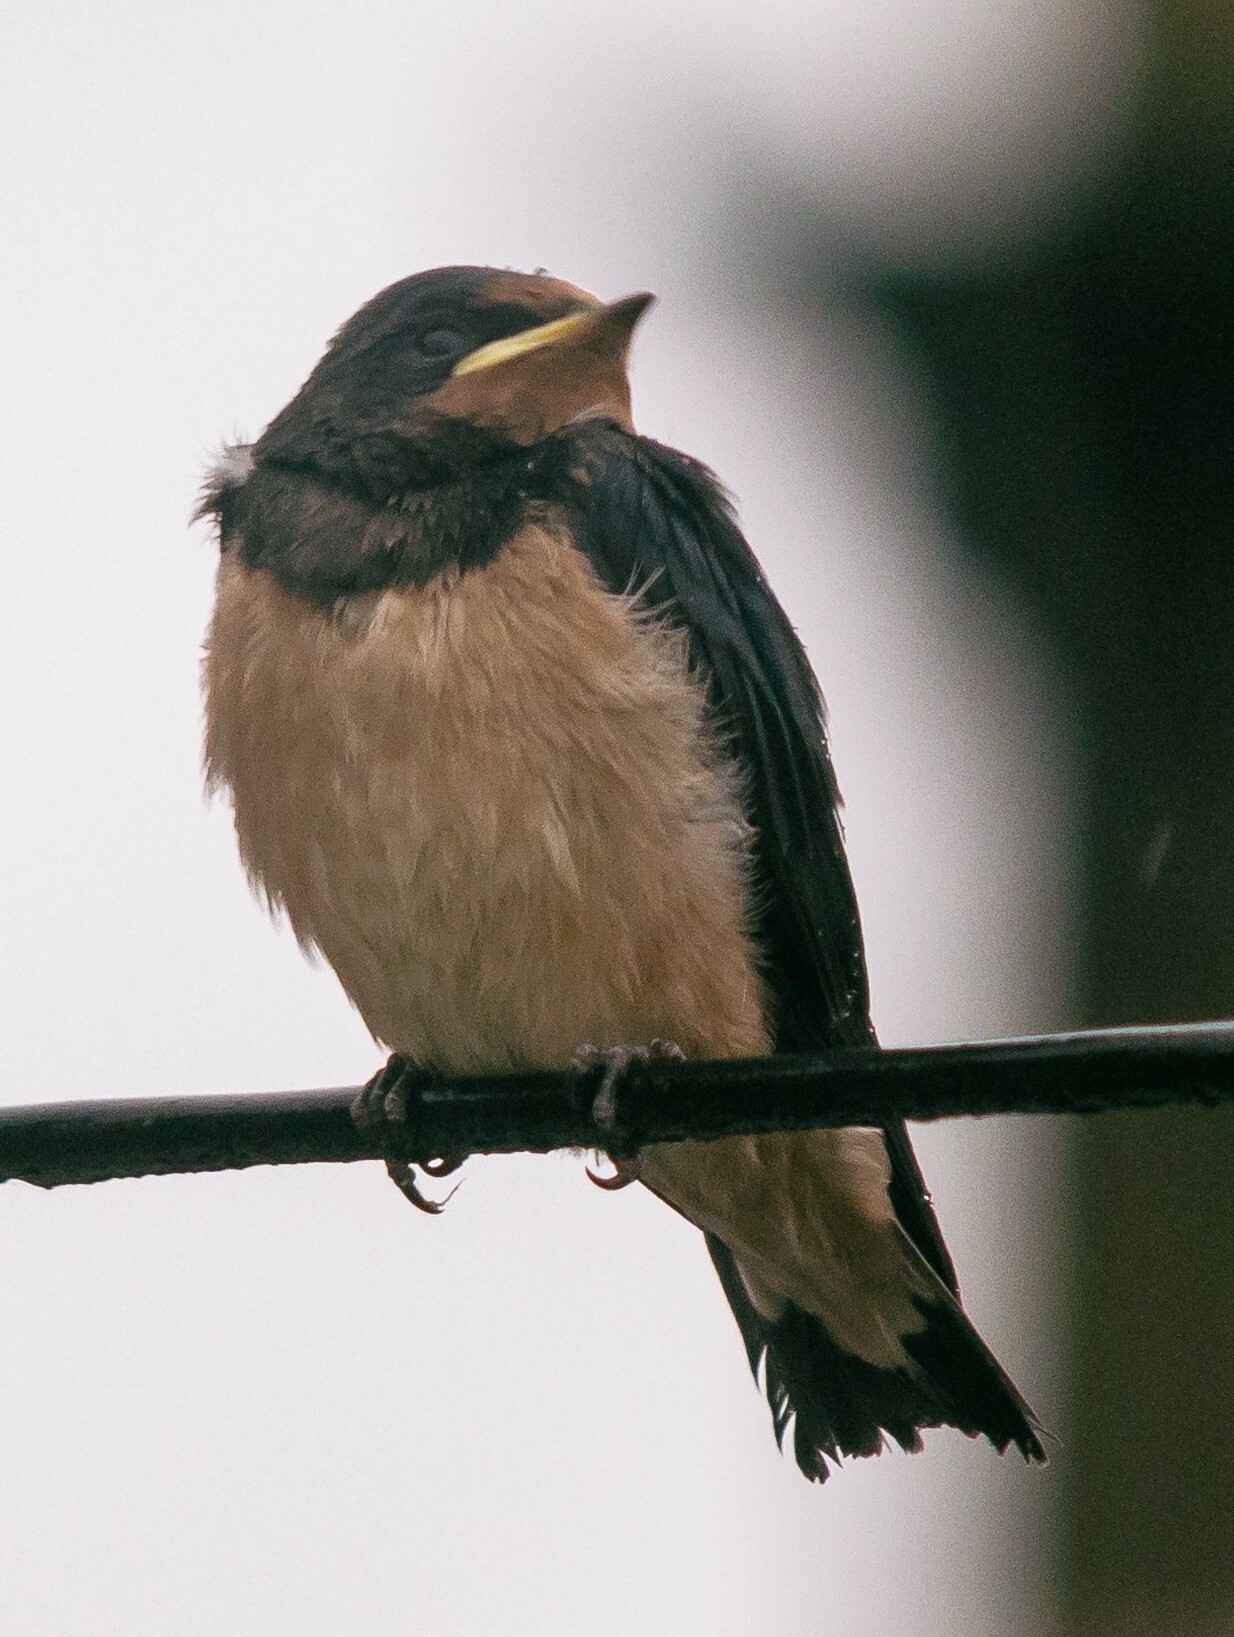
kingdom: Animalia
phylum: Chordata
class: Aves
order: Passeriformes
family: Hirundinidae
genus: Hirundo
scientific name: Hirundo rustica
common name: Barn swallow
